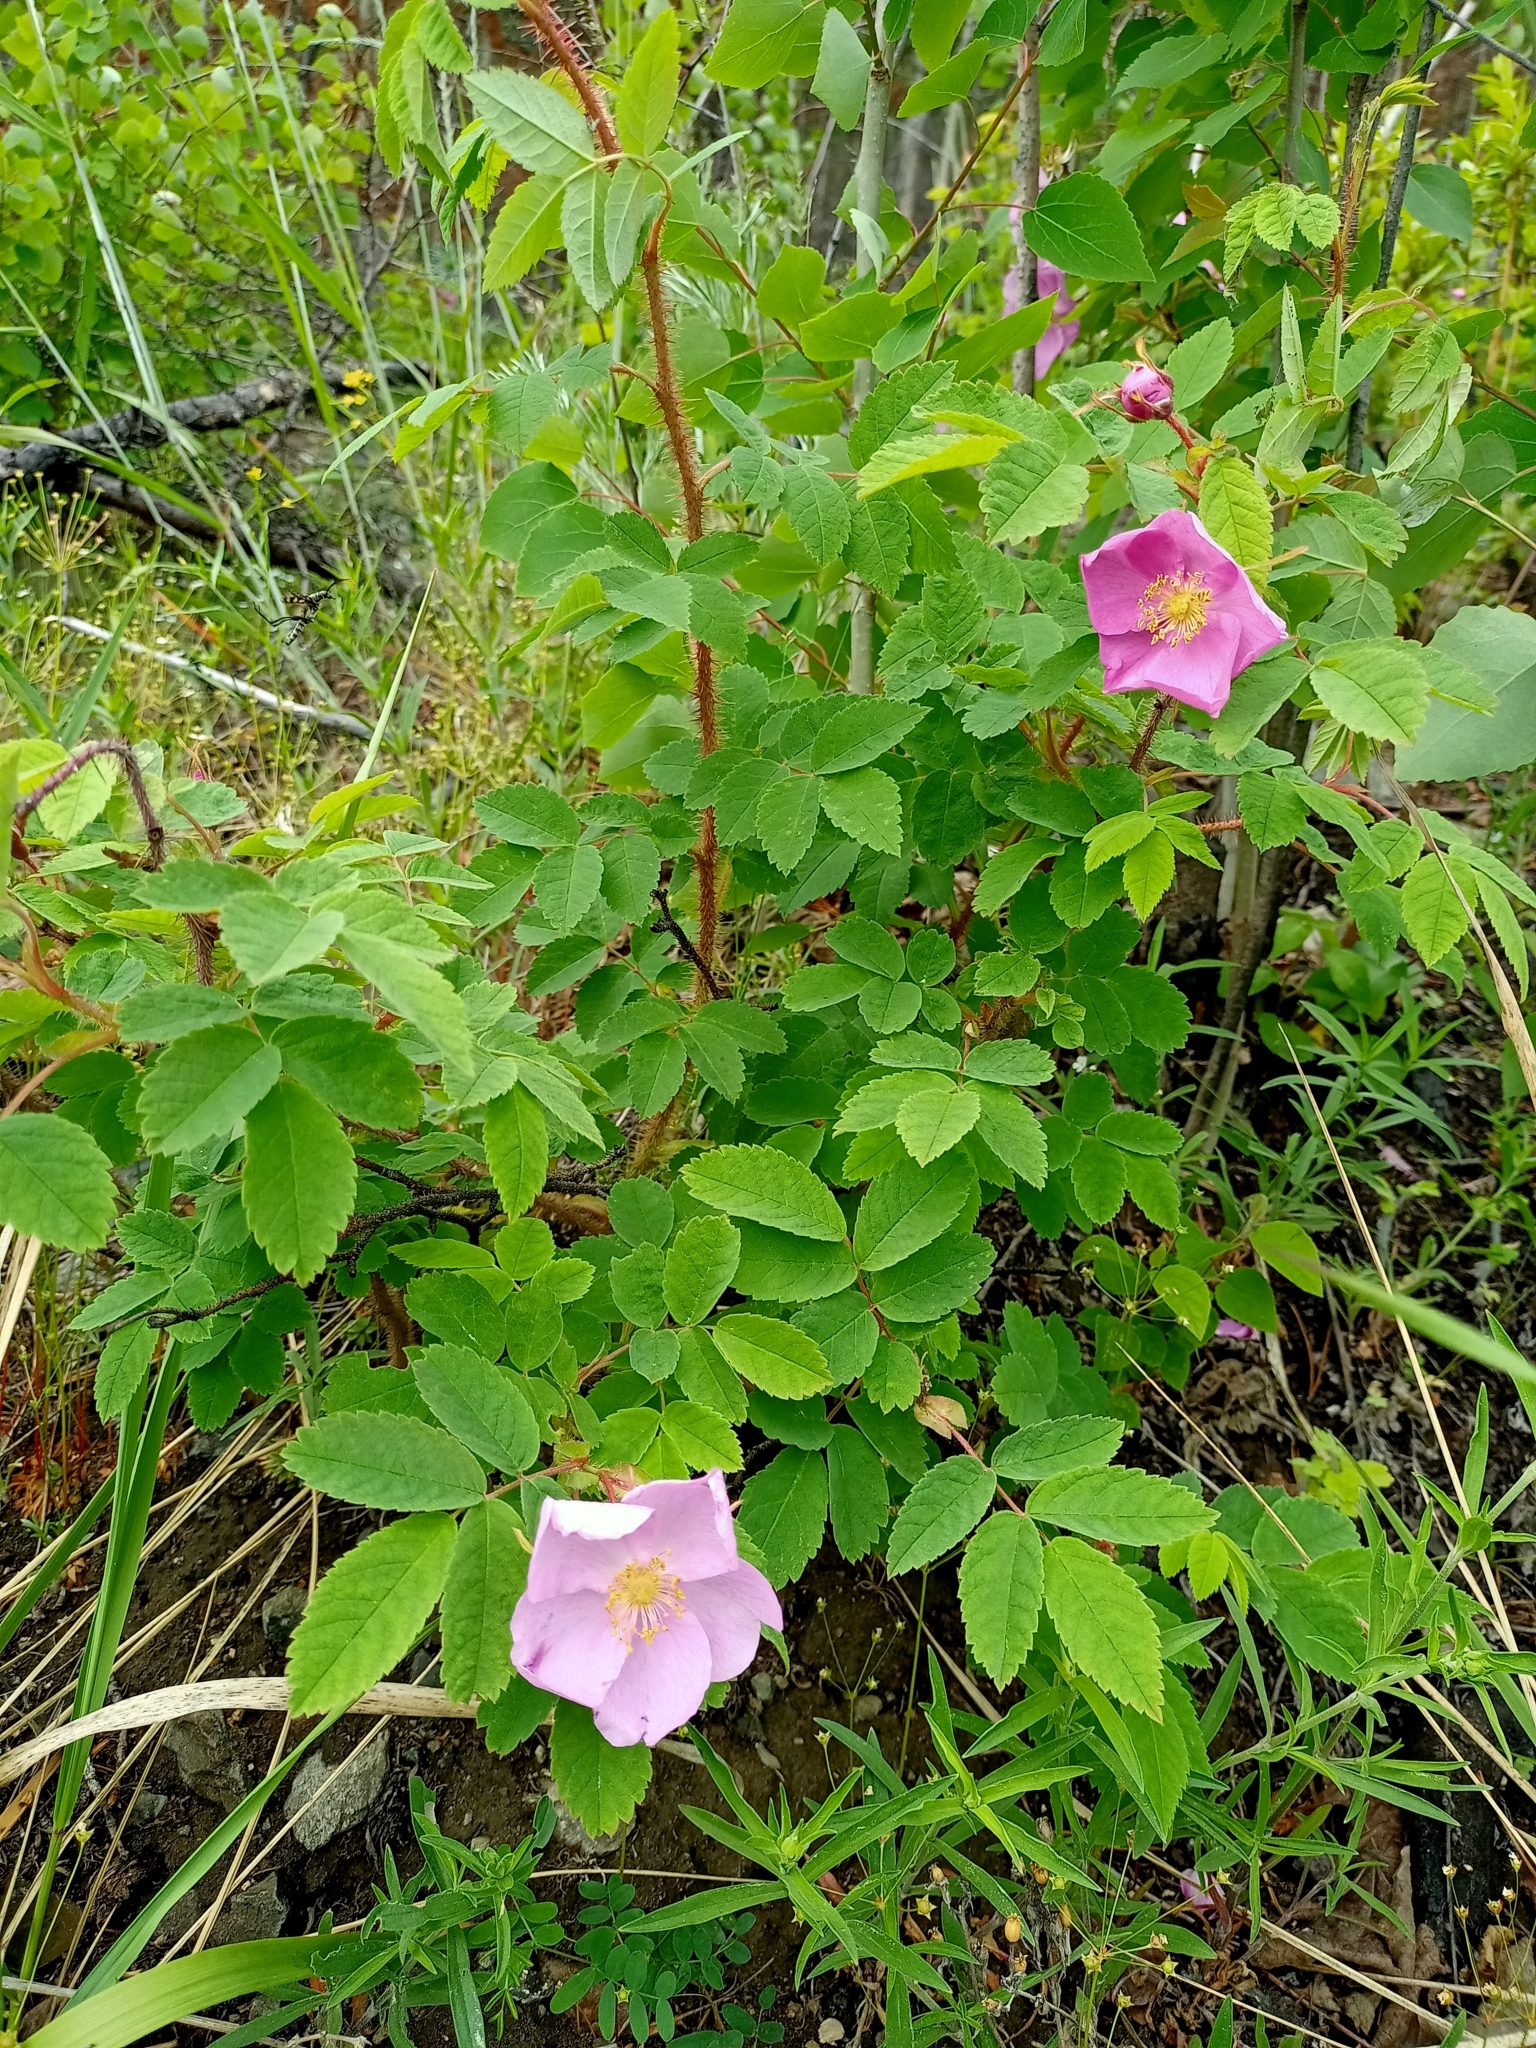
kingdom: Plantae
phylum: Tracheophyta
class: Magnoliopsida
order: Rosales
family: Rosaceae
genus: Rosa
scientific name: Rosa acicularis
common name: Prickly rose
